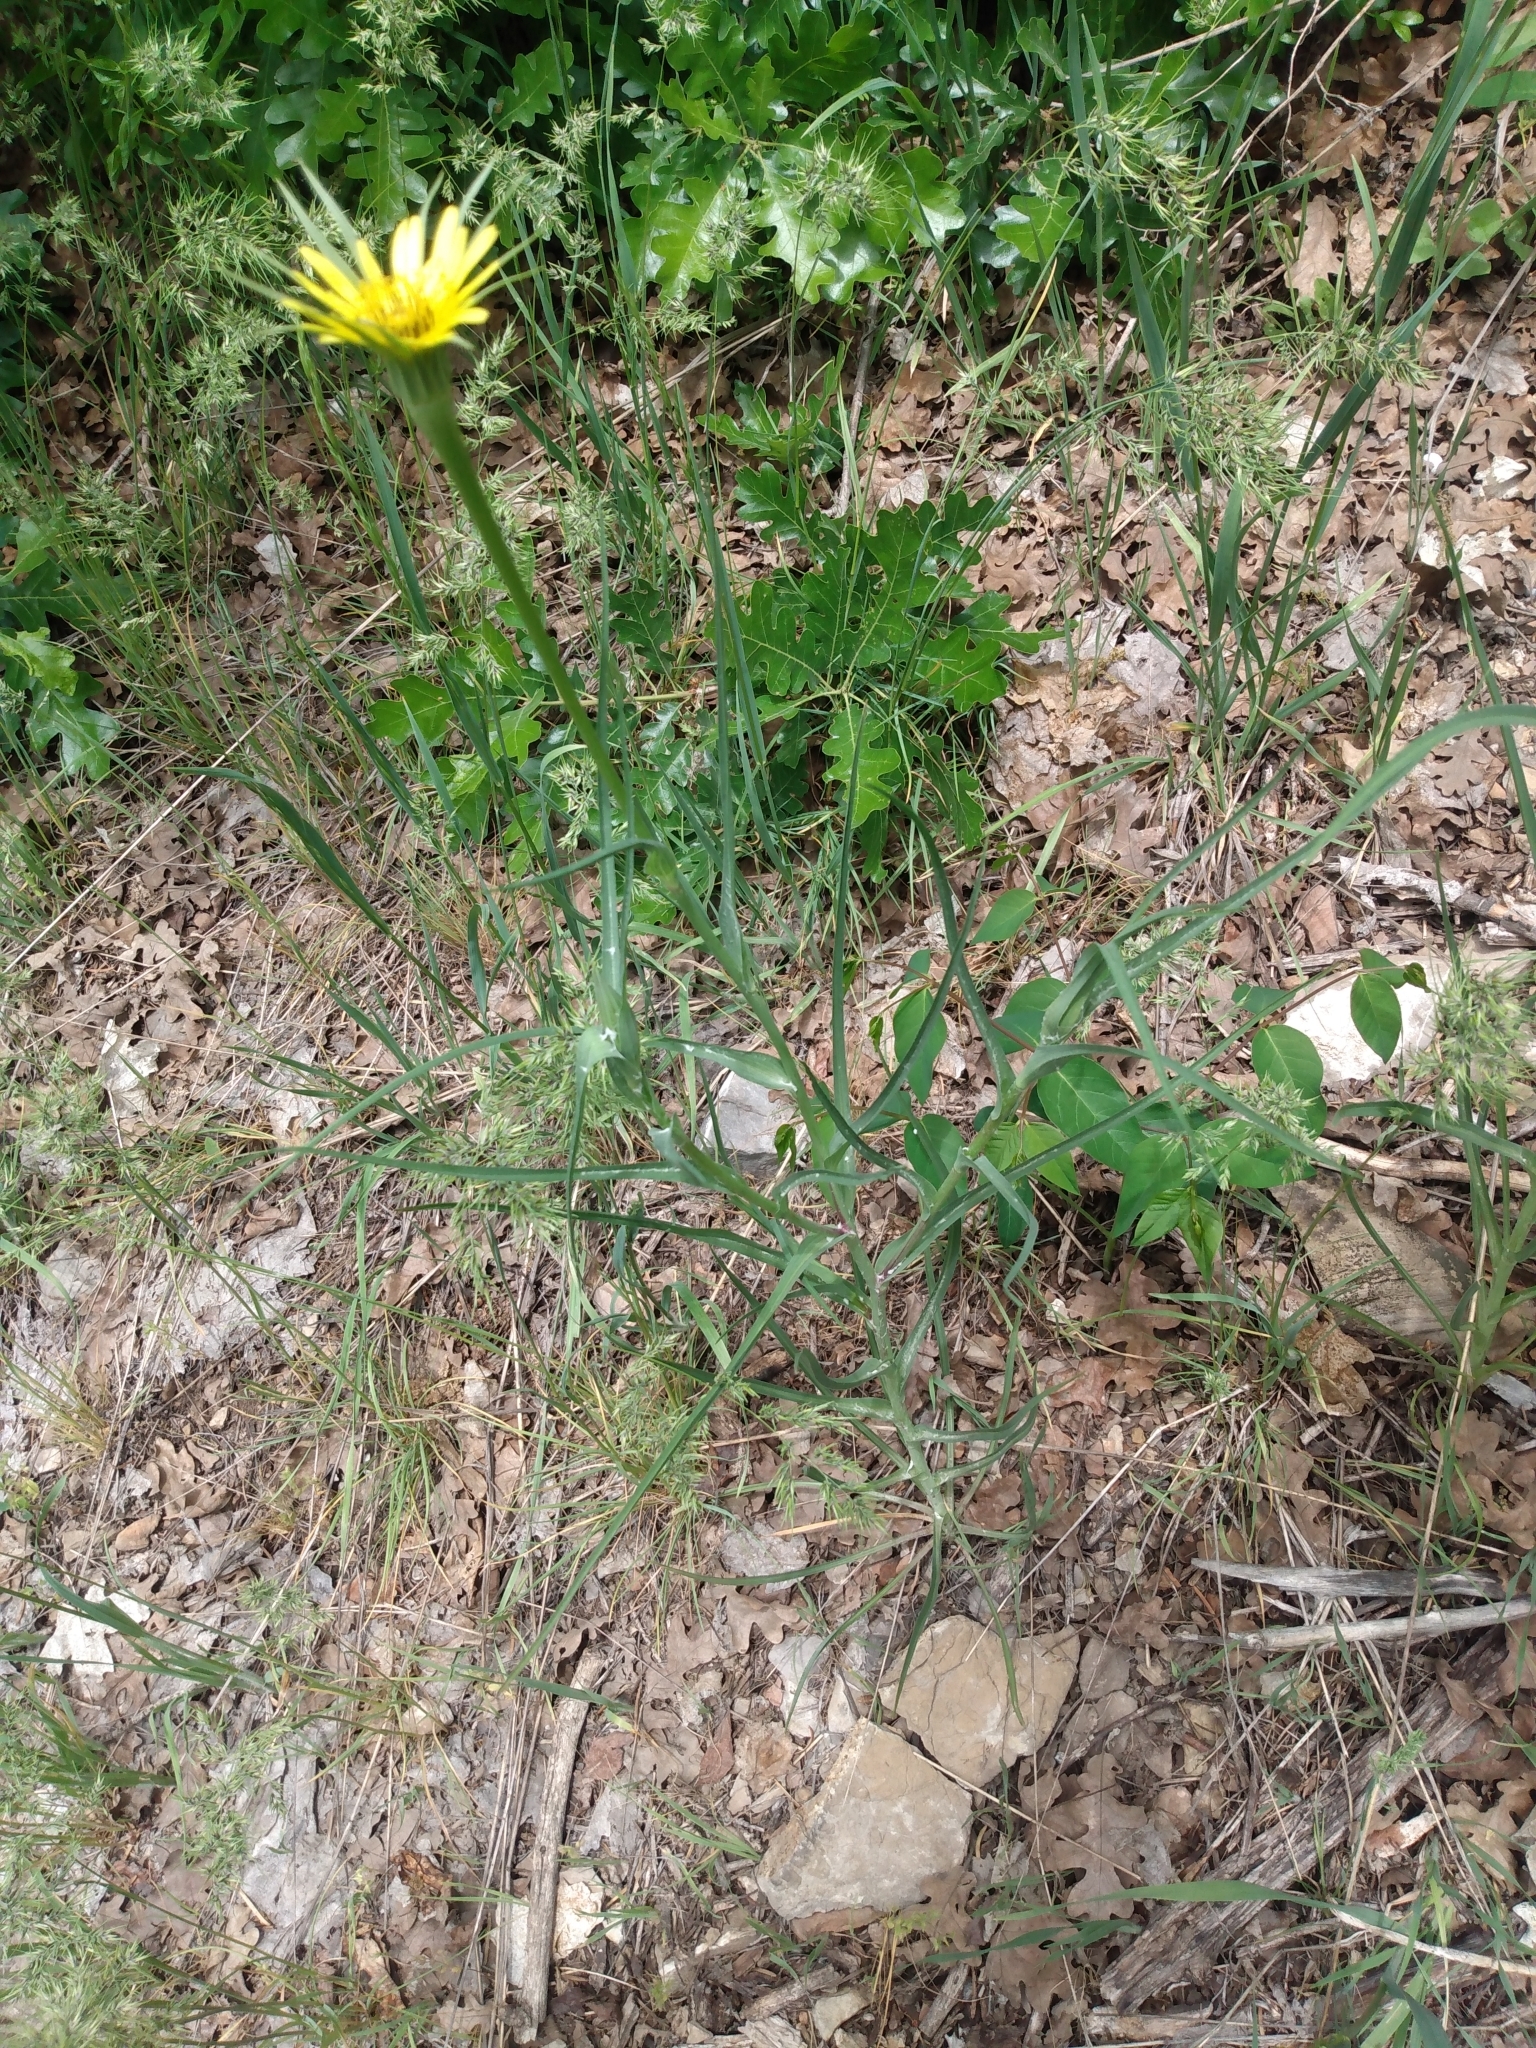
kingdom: Plantae
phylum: Tracheophyta
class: Magnoliopsida
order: Asterales
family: Asteraceae
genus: Tragopogon
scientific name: Tragopogon dubius
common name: Yellow salsify
